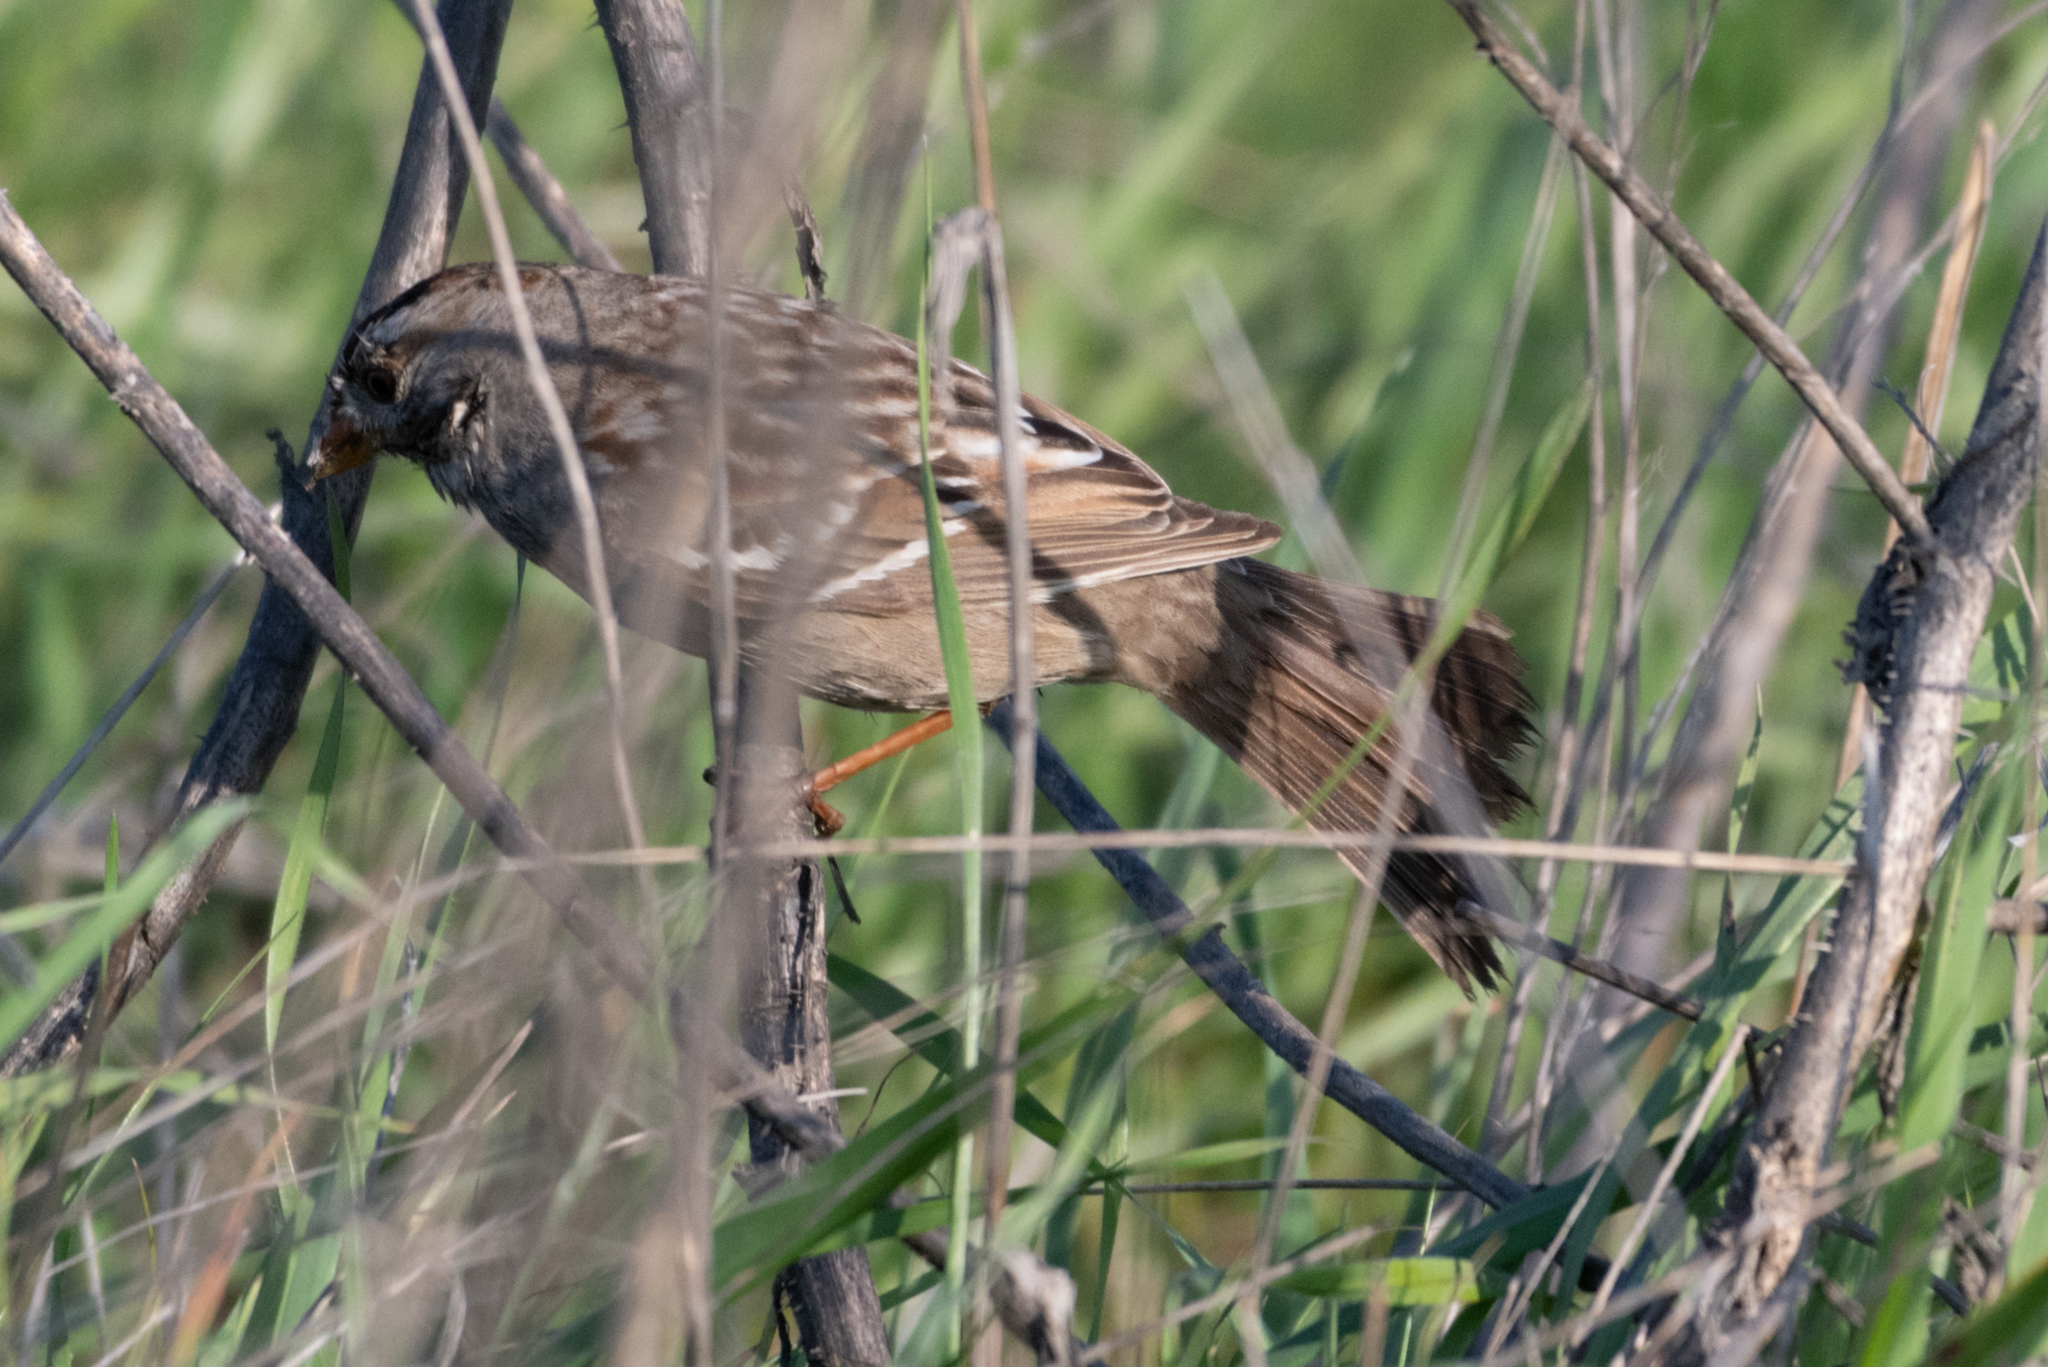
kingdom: Animalia
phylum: Chordata
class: Aves
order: Passeriformes
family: Passerellidae
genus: Zonotrichia
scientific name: Zonotrichia leucophrys
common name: White-crowned sparrow
